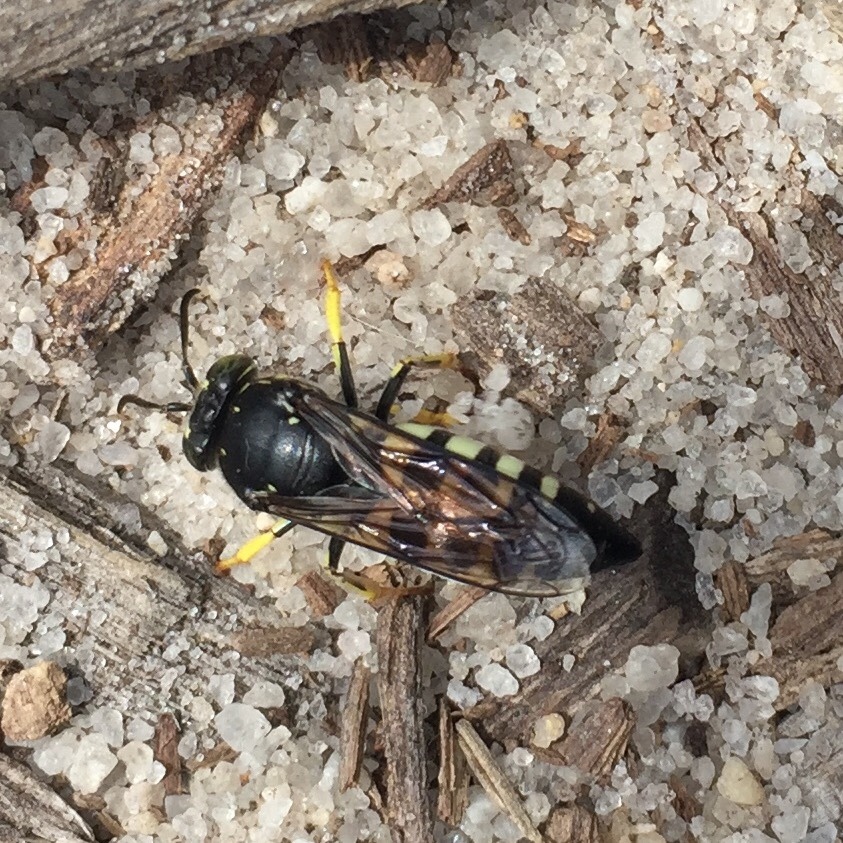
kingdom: Animalia
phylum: Arthropoda
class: Insecta
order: Hymenoptera
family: Crabronidae
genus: Bicyrtes
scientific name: Bicyrtes quadrifasciatus
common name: Four-banded stink bug hunter wasp
